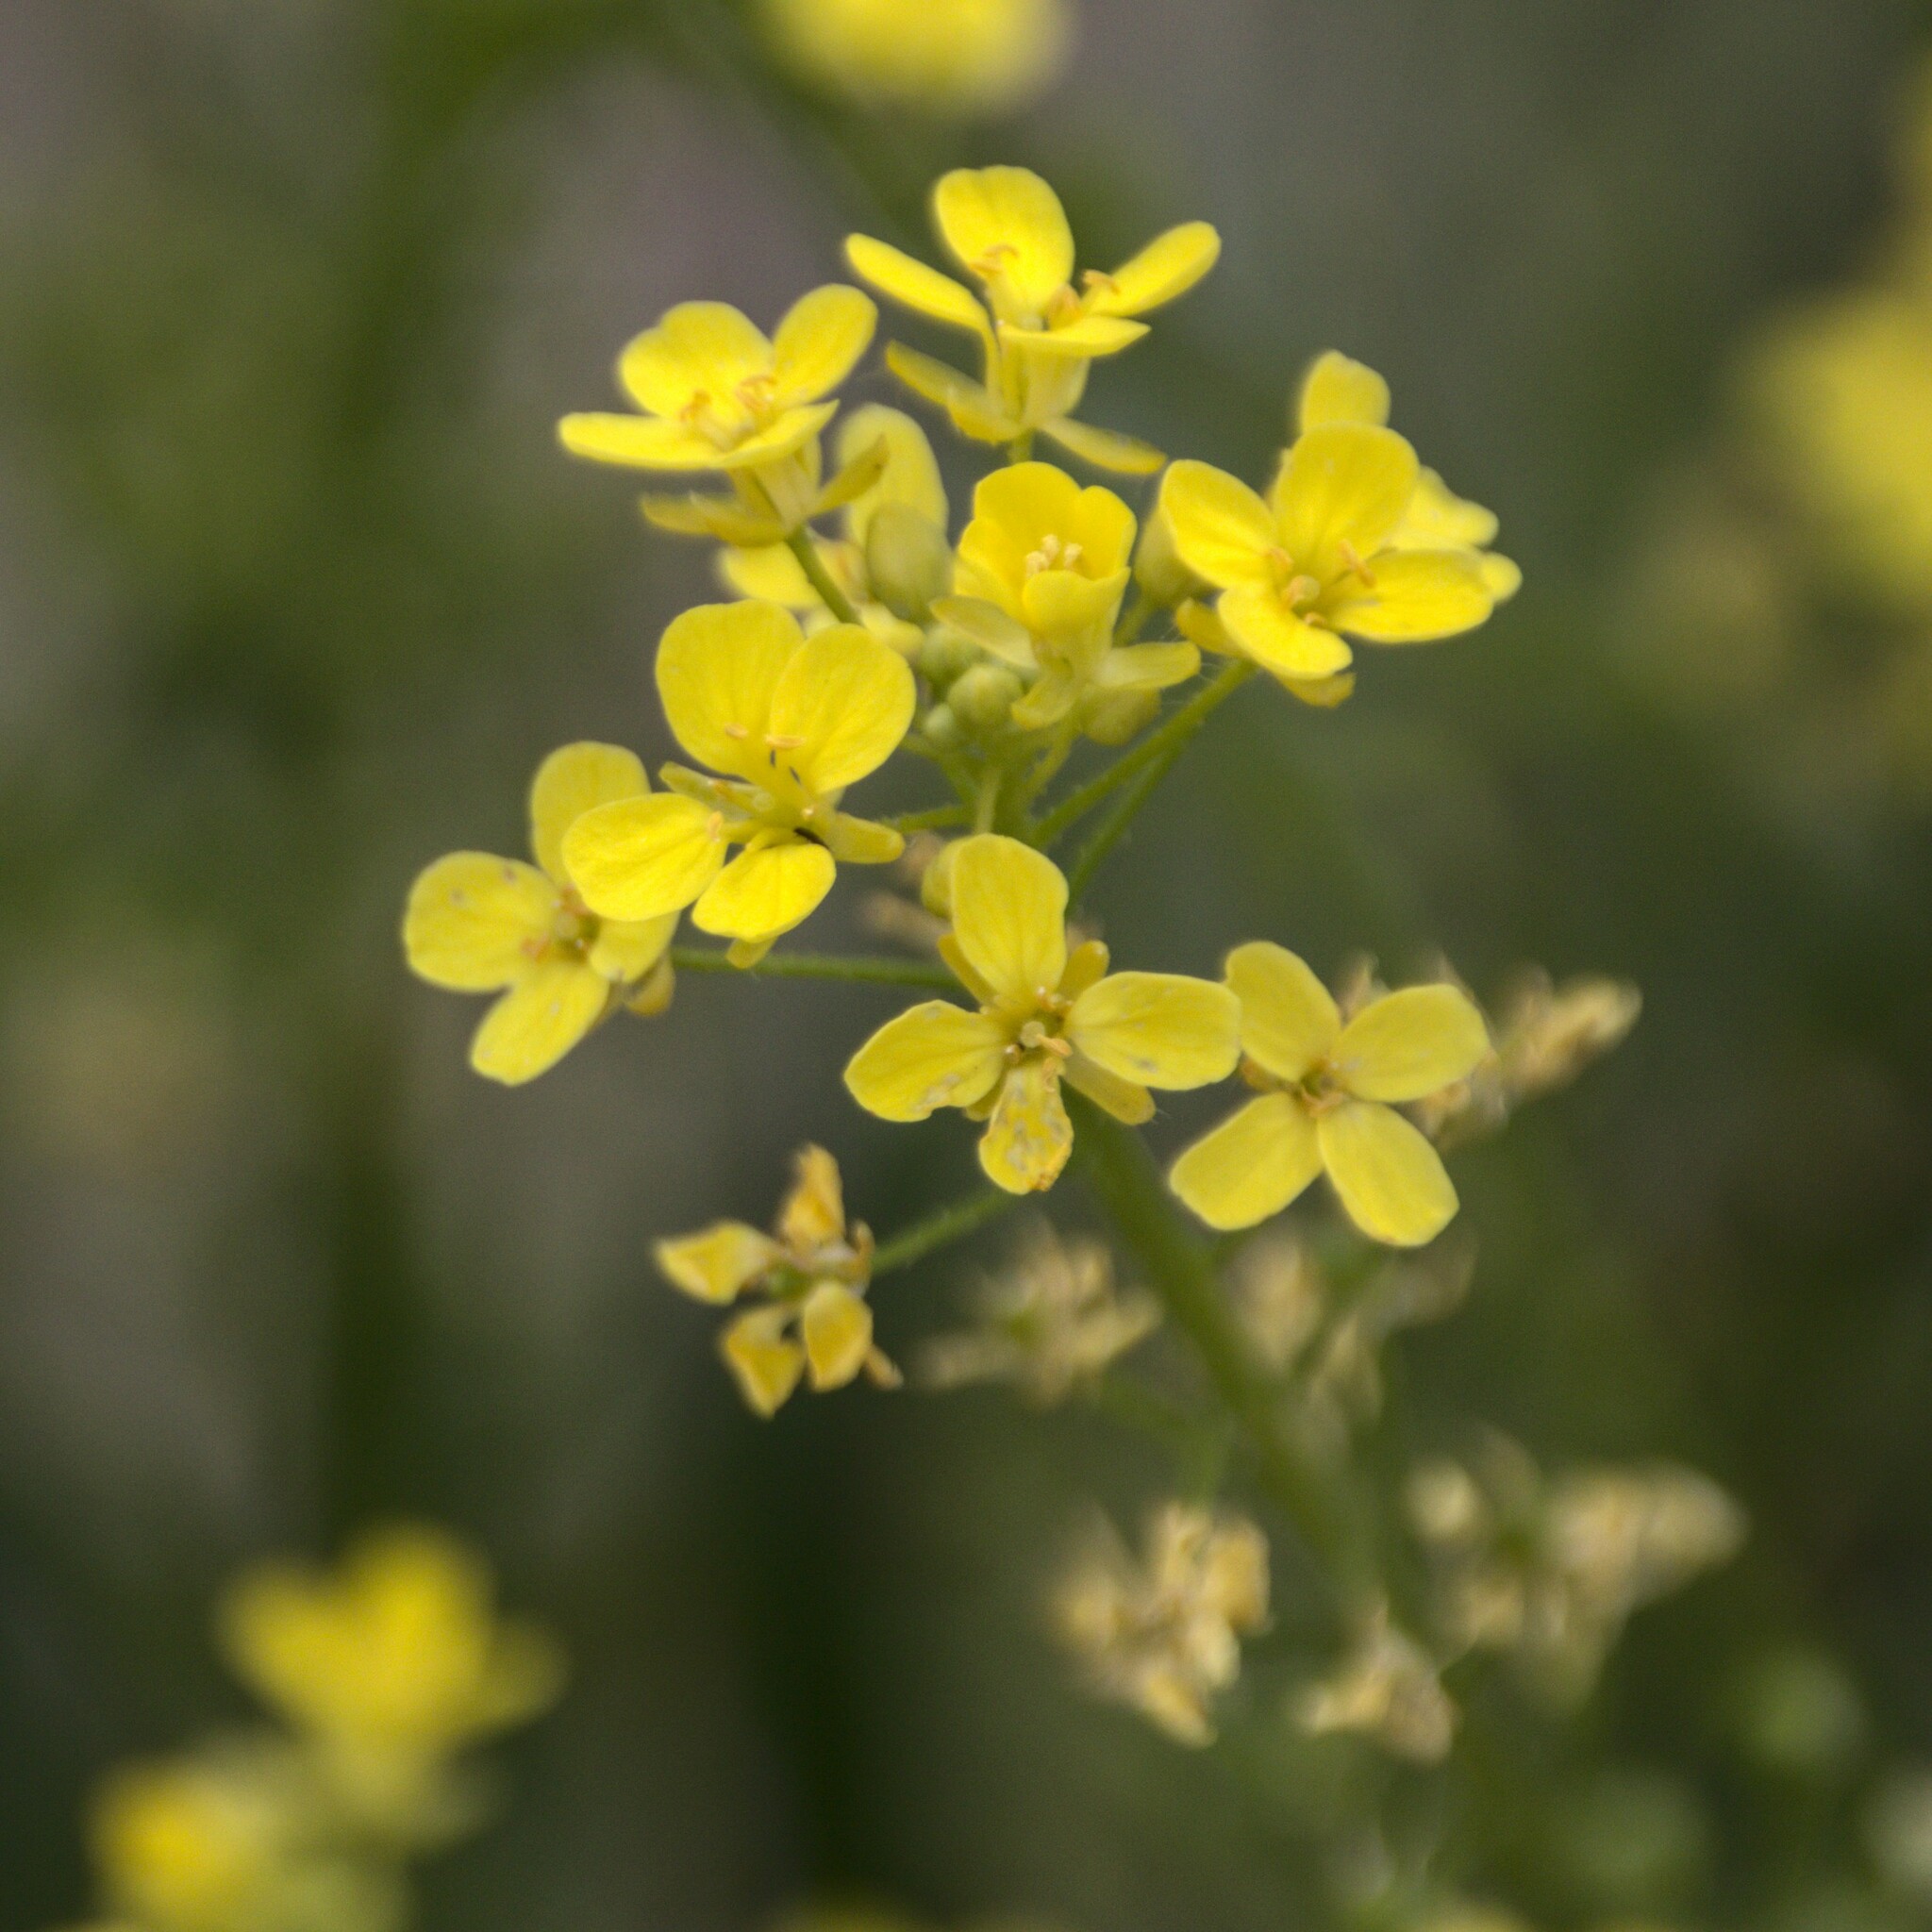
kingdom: Plantae
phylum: Tracheophyta
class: Magnoliopsida
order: Brassicales
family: Brassicaceae
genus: Bunias
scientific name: Bunias orientalis
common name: Warty-cabbage
